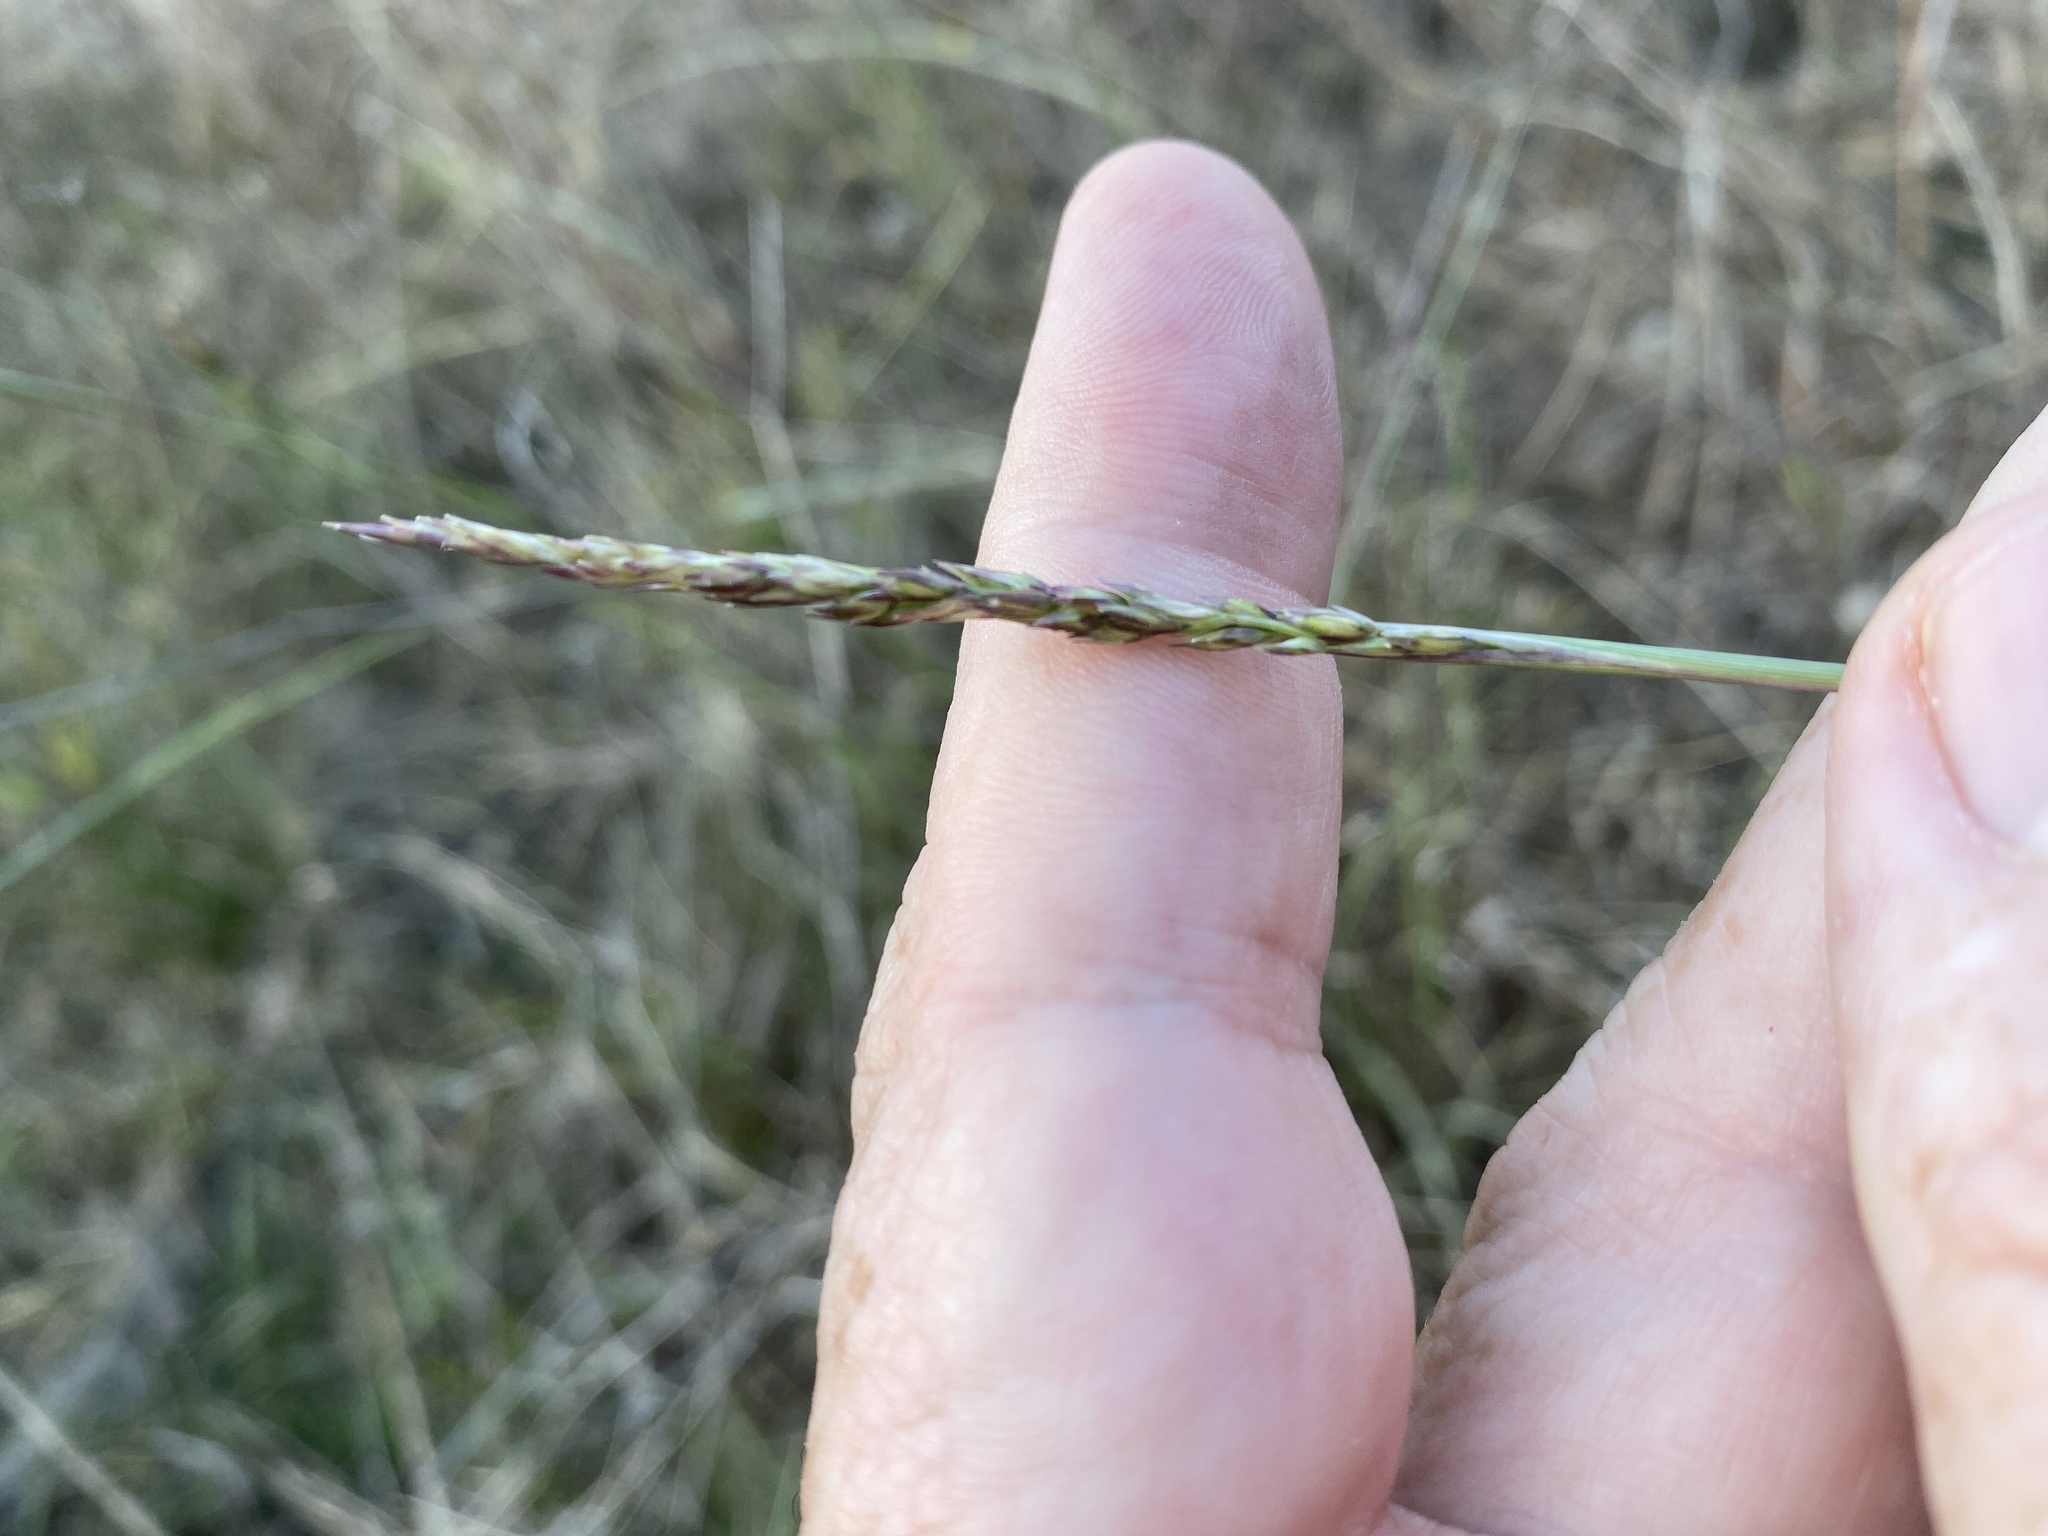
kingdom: Plantae
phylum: Tracheophyta
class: Liliopsida
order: Poales
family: Poaceae
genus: Sporobolus
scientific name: Sporobolus compositus
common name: Rough dropseed
